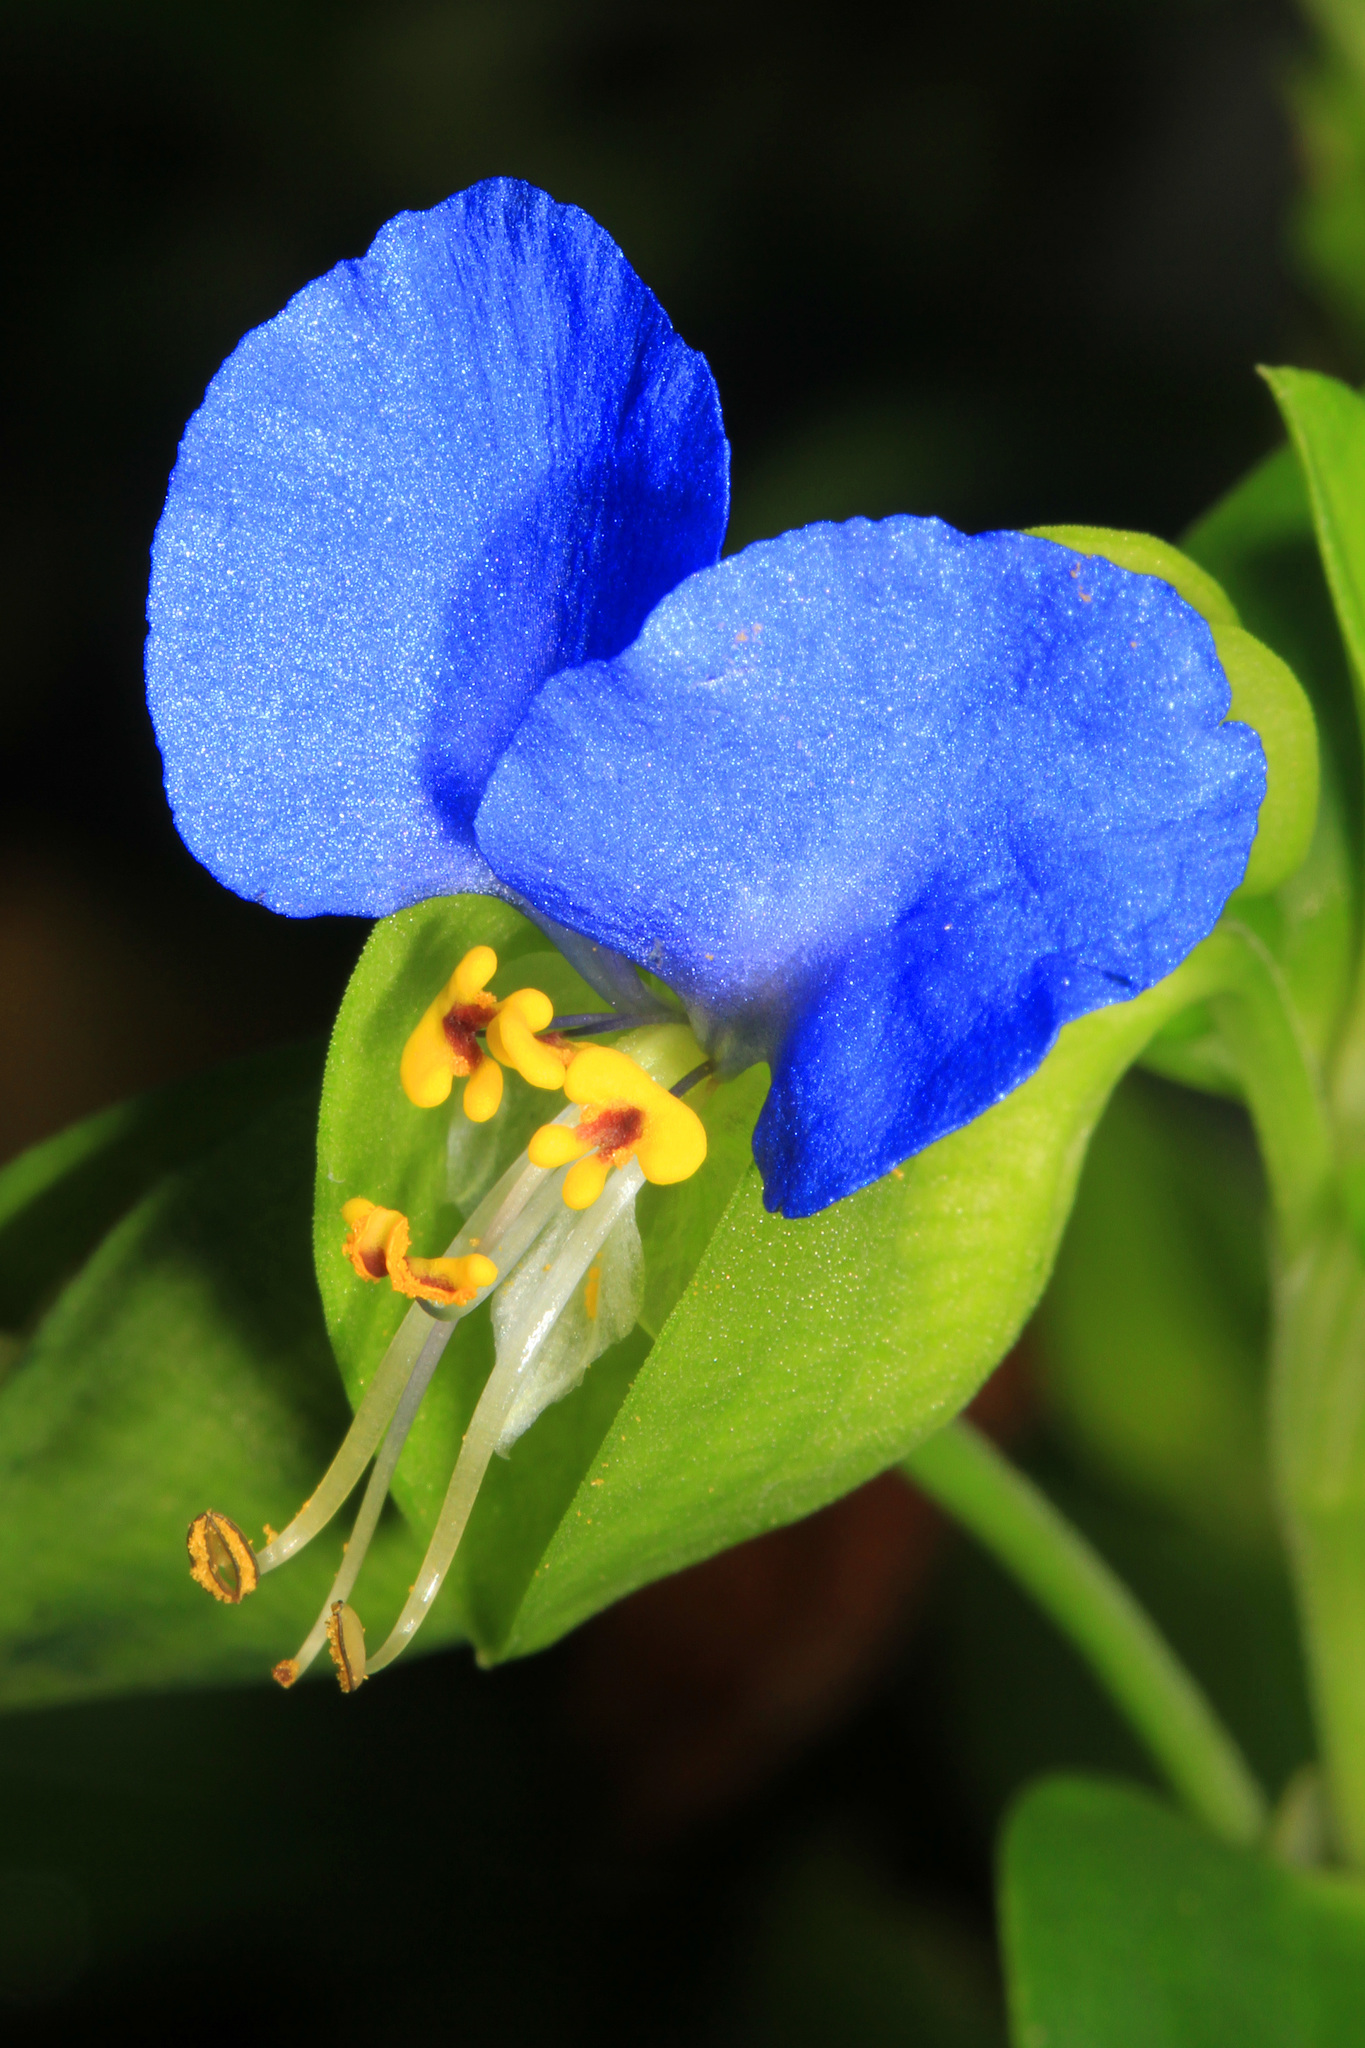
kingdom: Plantae
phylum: Tracheophyta
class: Liliopsida
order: Commelinales
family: Commelinaceae
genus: Commelina
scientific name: Commelina communis
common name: Asiatic dayflower
